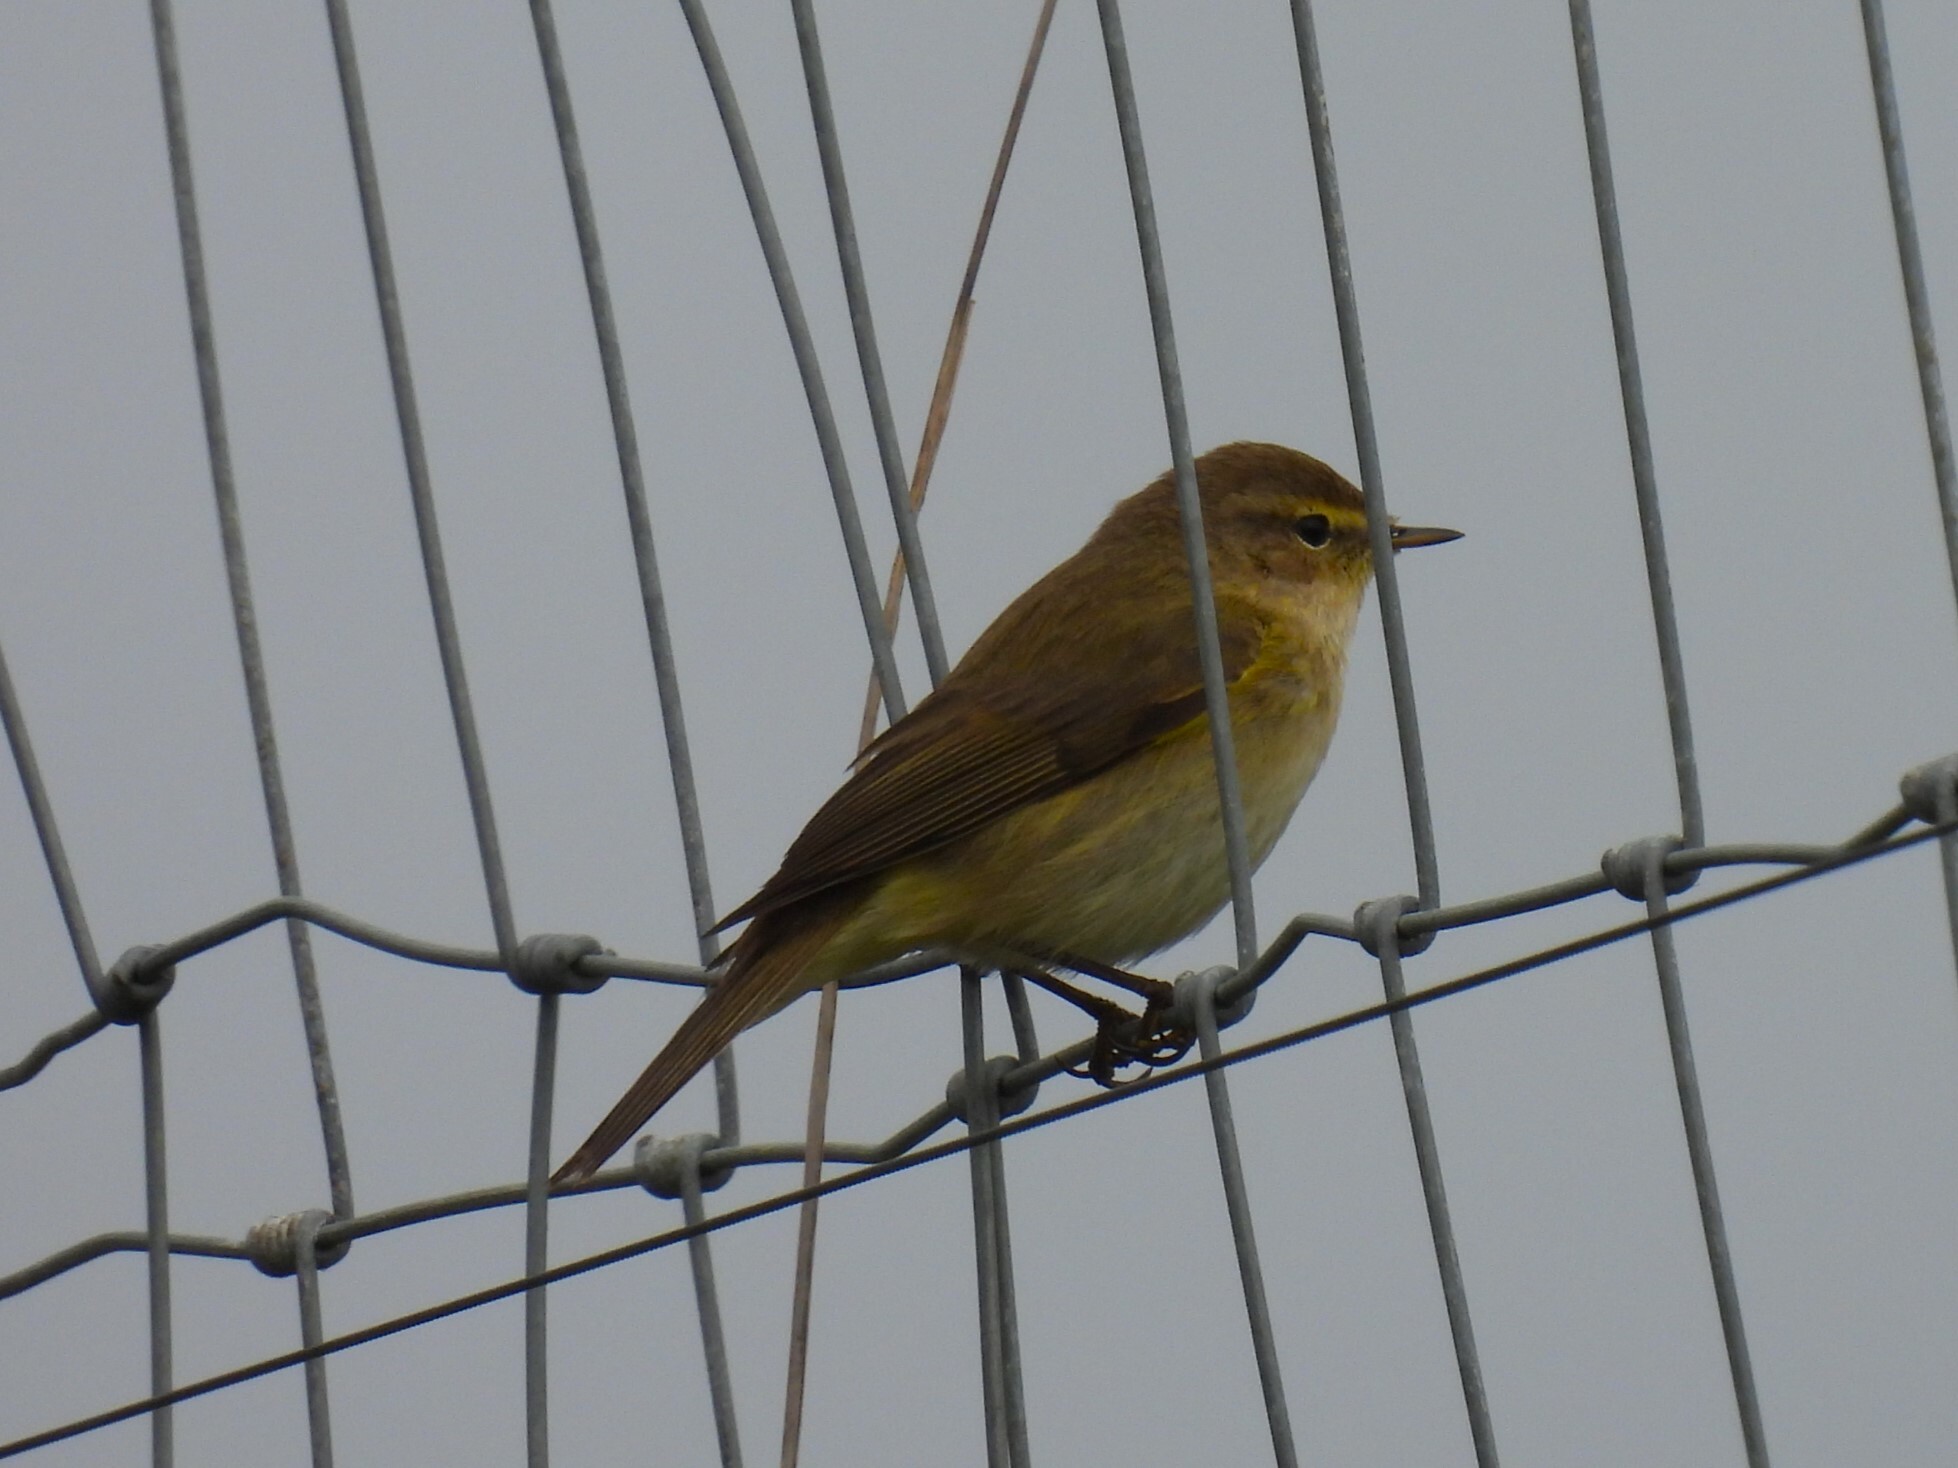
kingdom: Animalia
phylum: Chordata
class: Aves
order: Passeriformes
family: Phylloscopidae
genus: Phylloscopus
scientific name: Phylloscopus collybita
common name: Common chiffchaff
